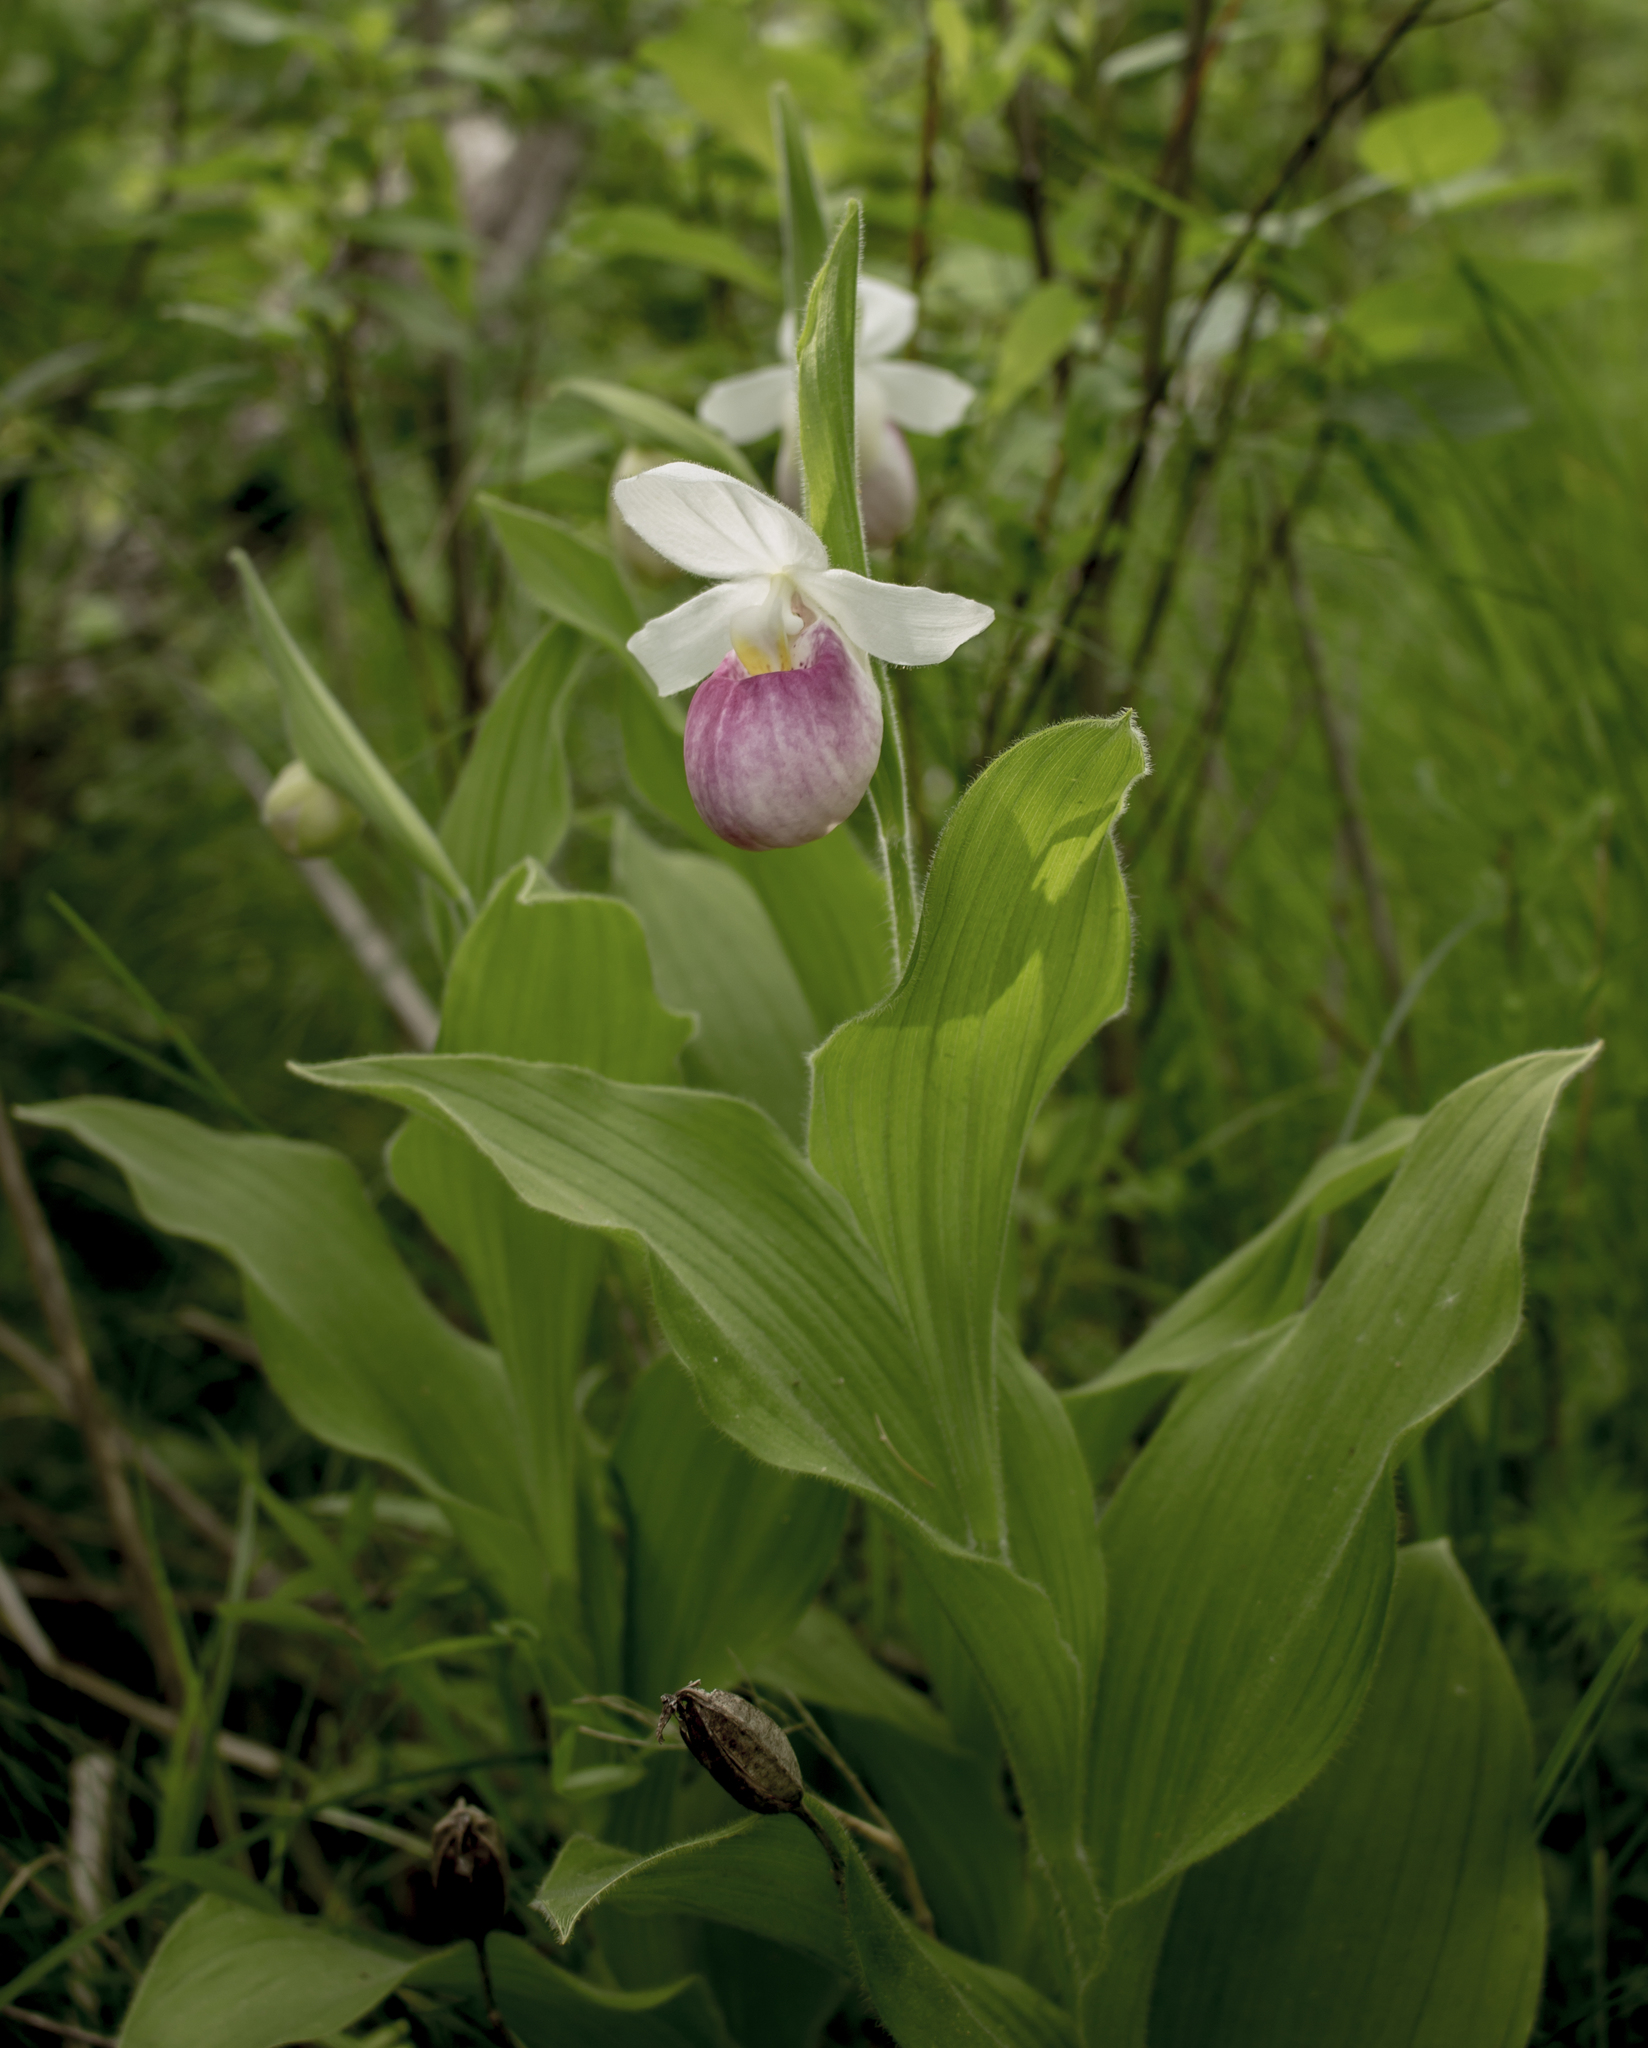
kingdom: Plantae
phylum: Tracheophyta
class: Liliopsida
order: Asparagales
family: Orchidaceae
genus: Cypripedium
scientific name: Cypripedium reginae
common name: Queen lady's-slipper
